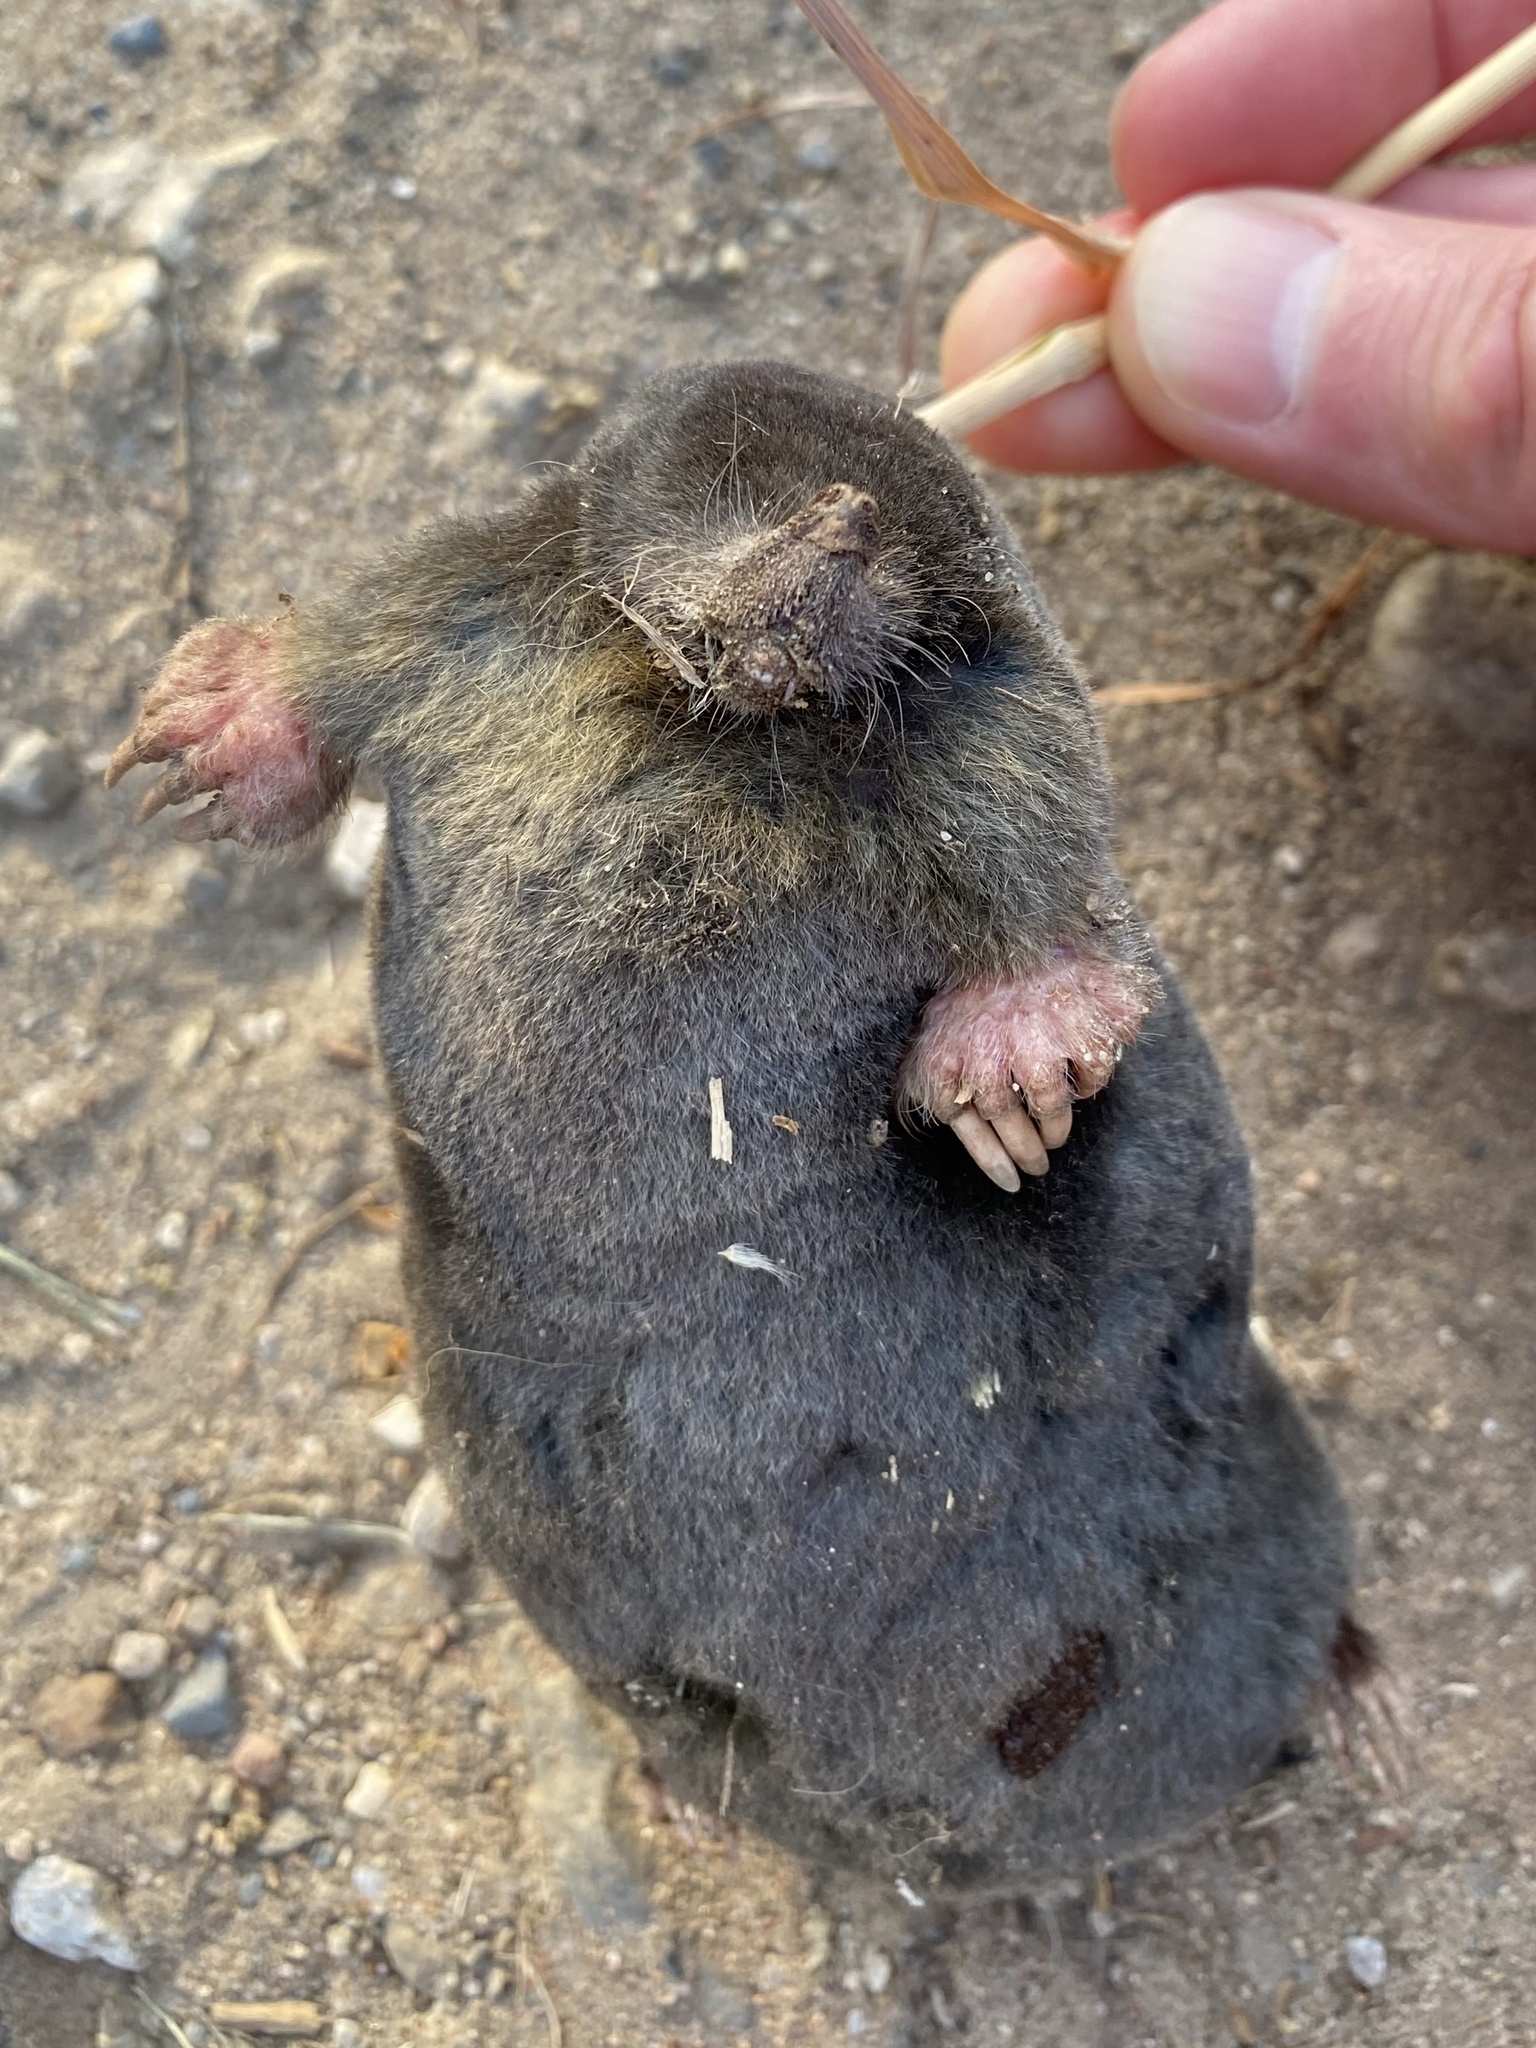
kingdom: Animalia
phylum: Chordata
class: Mammalia
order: Soricomorpha
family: Talpidae
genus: Talpa
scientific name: Talpa europaea
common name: European mole
